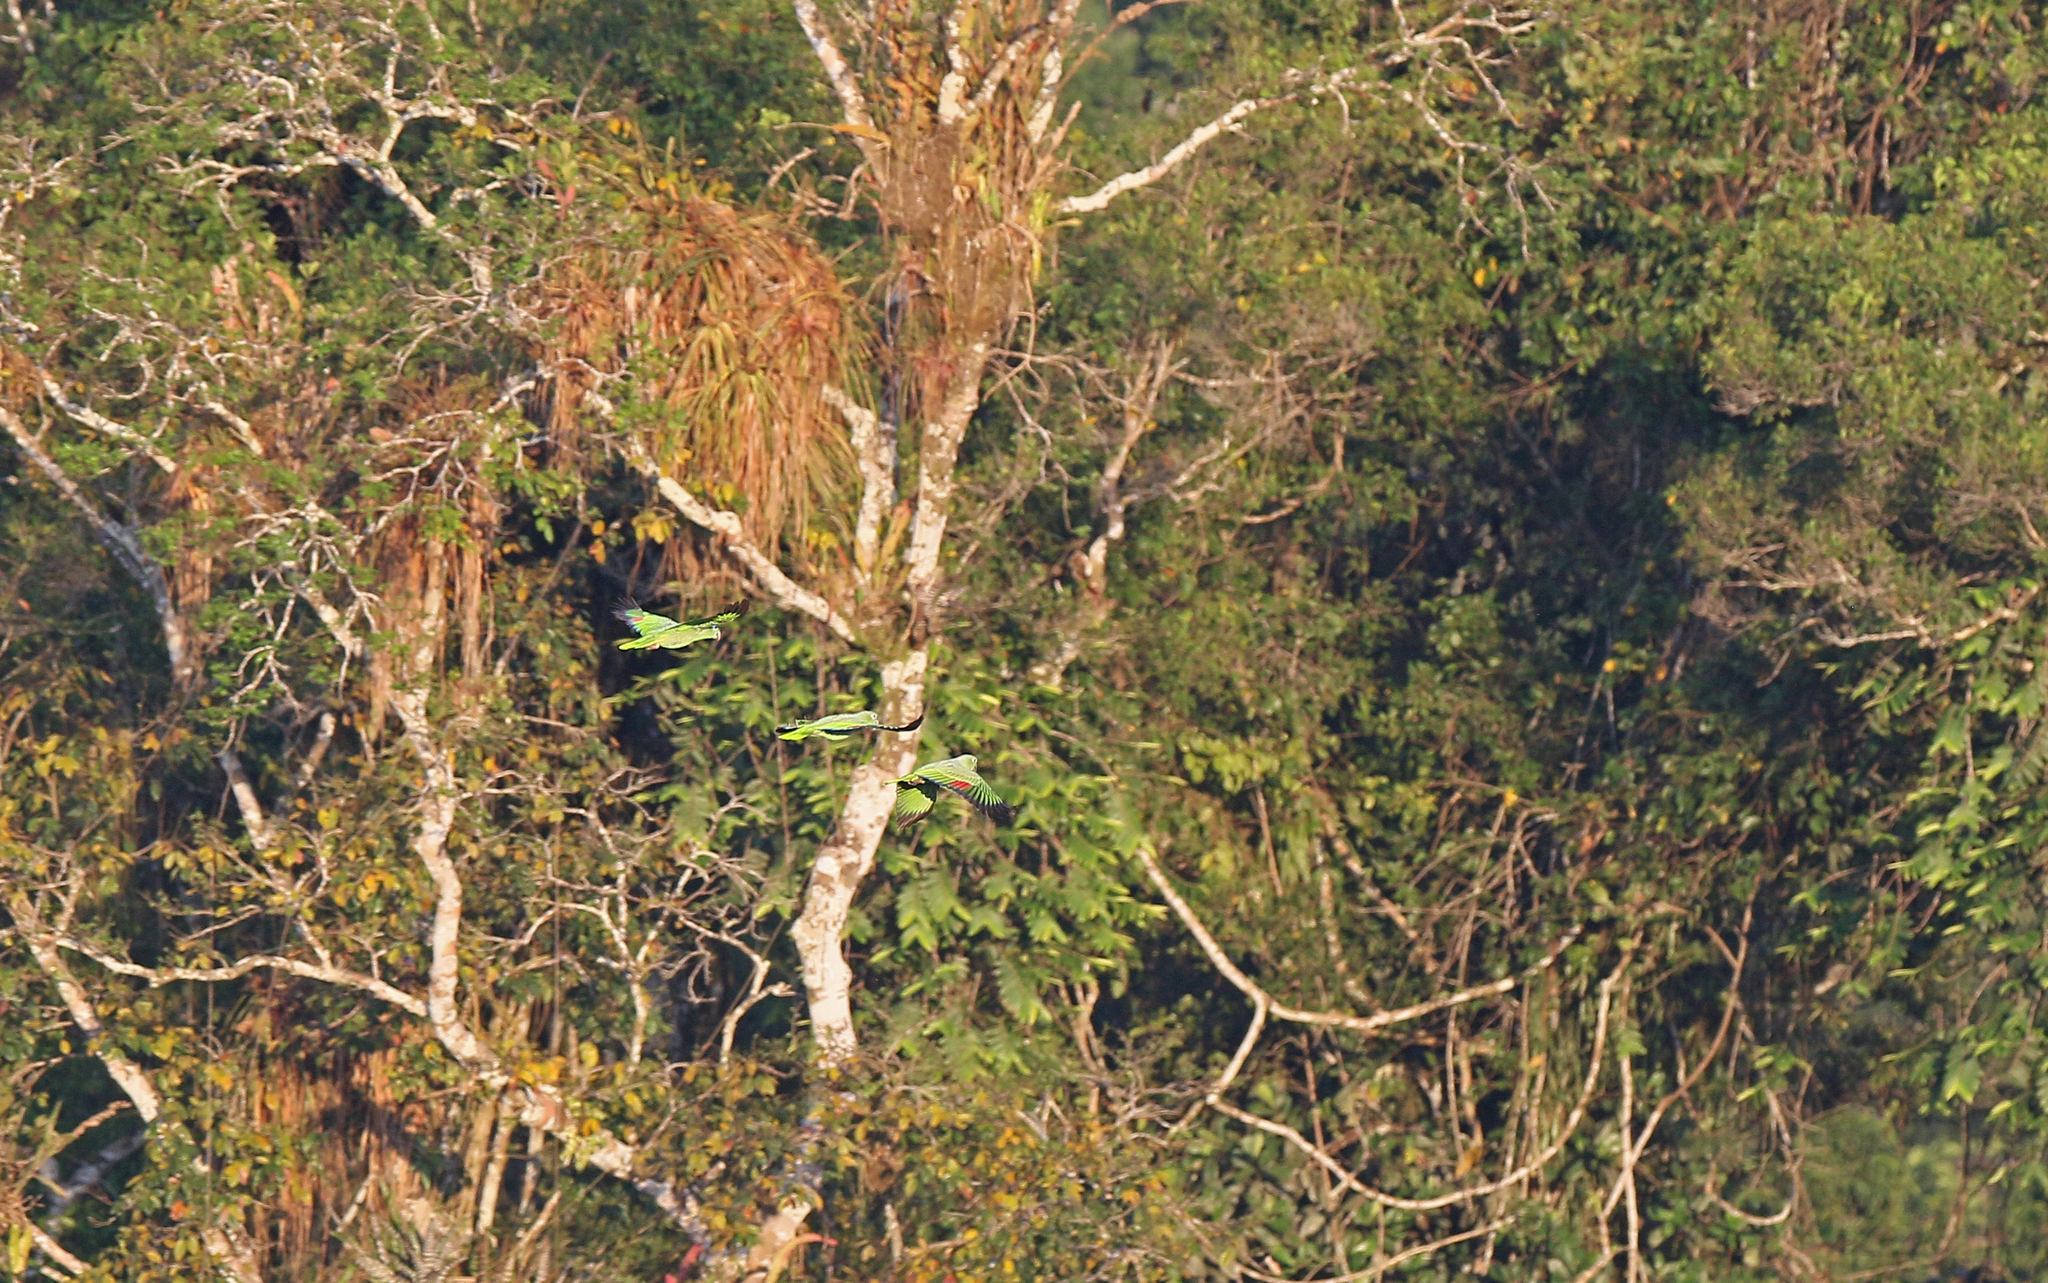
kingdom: Animalia
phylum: Chordata
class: Aves
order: Psittaciformes
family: Psittacidae
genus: Amazona
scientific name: Amazona farinosa
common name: Mealy parrot
